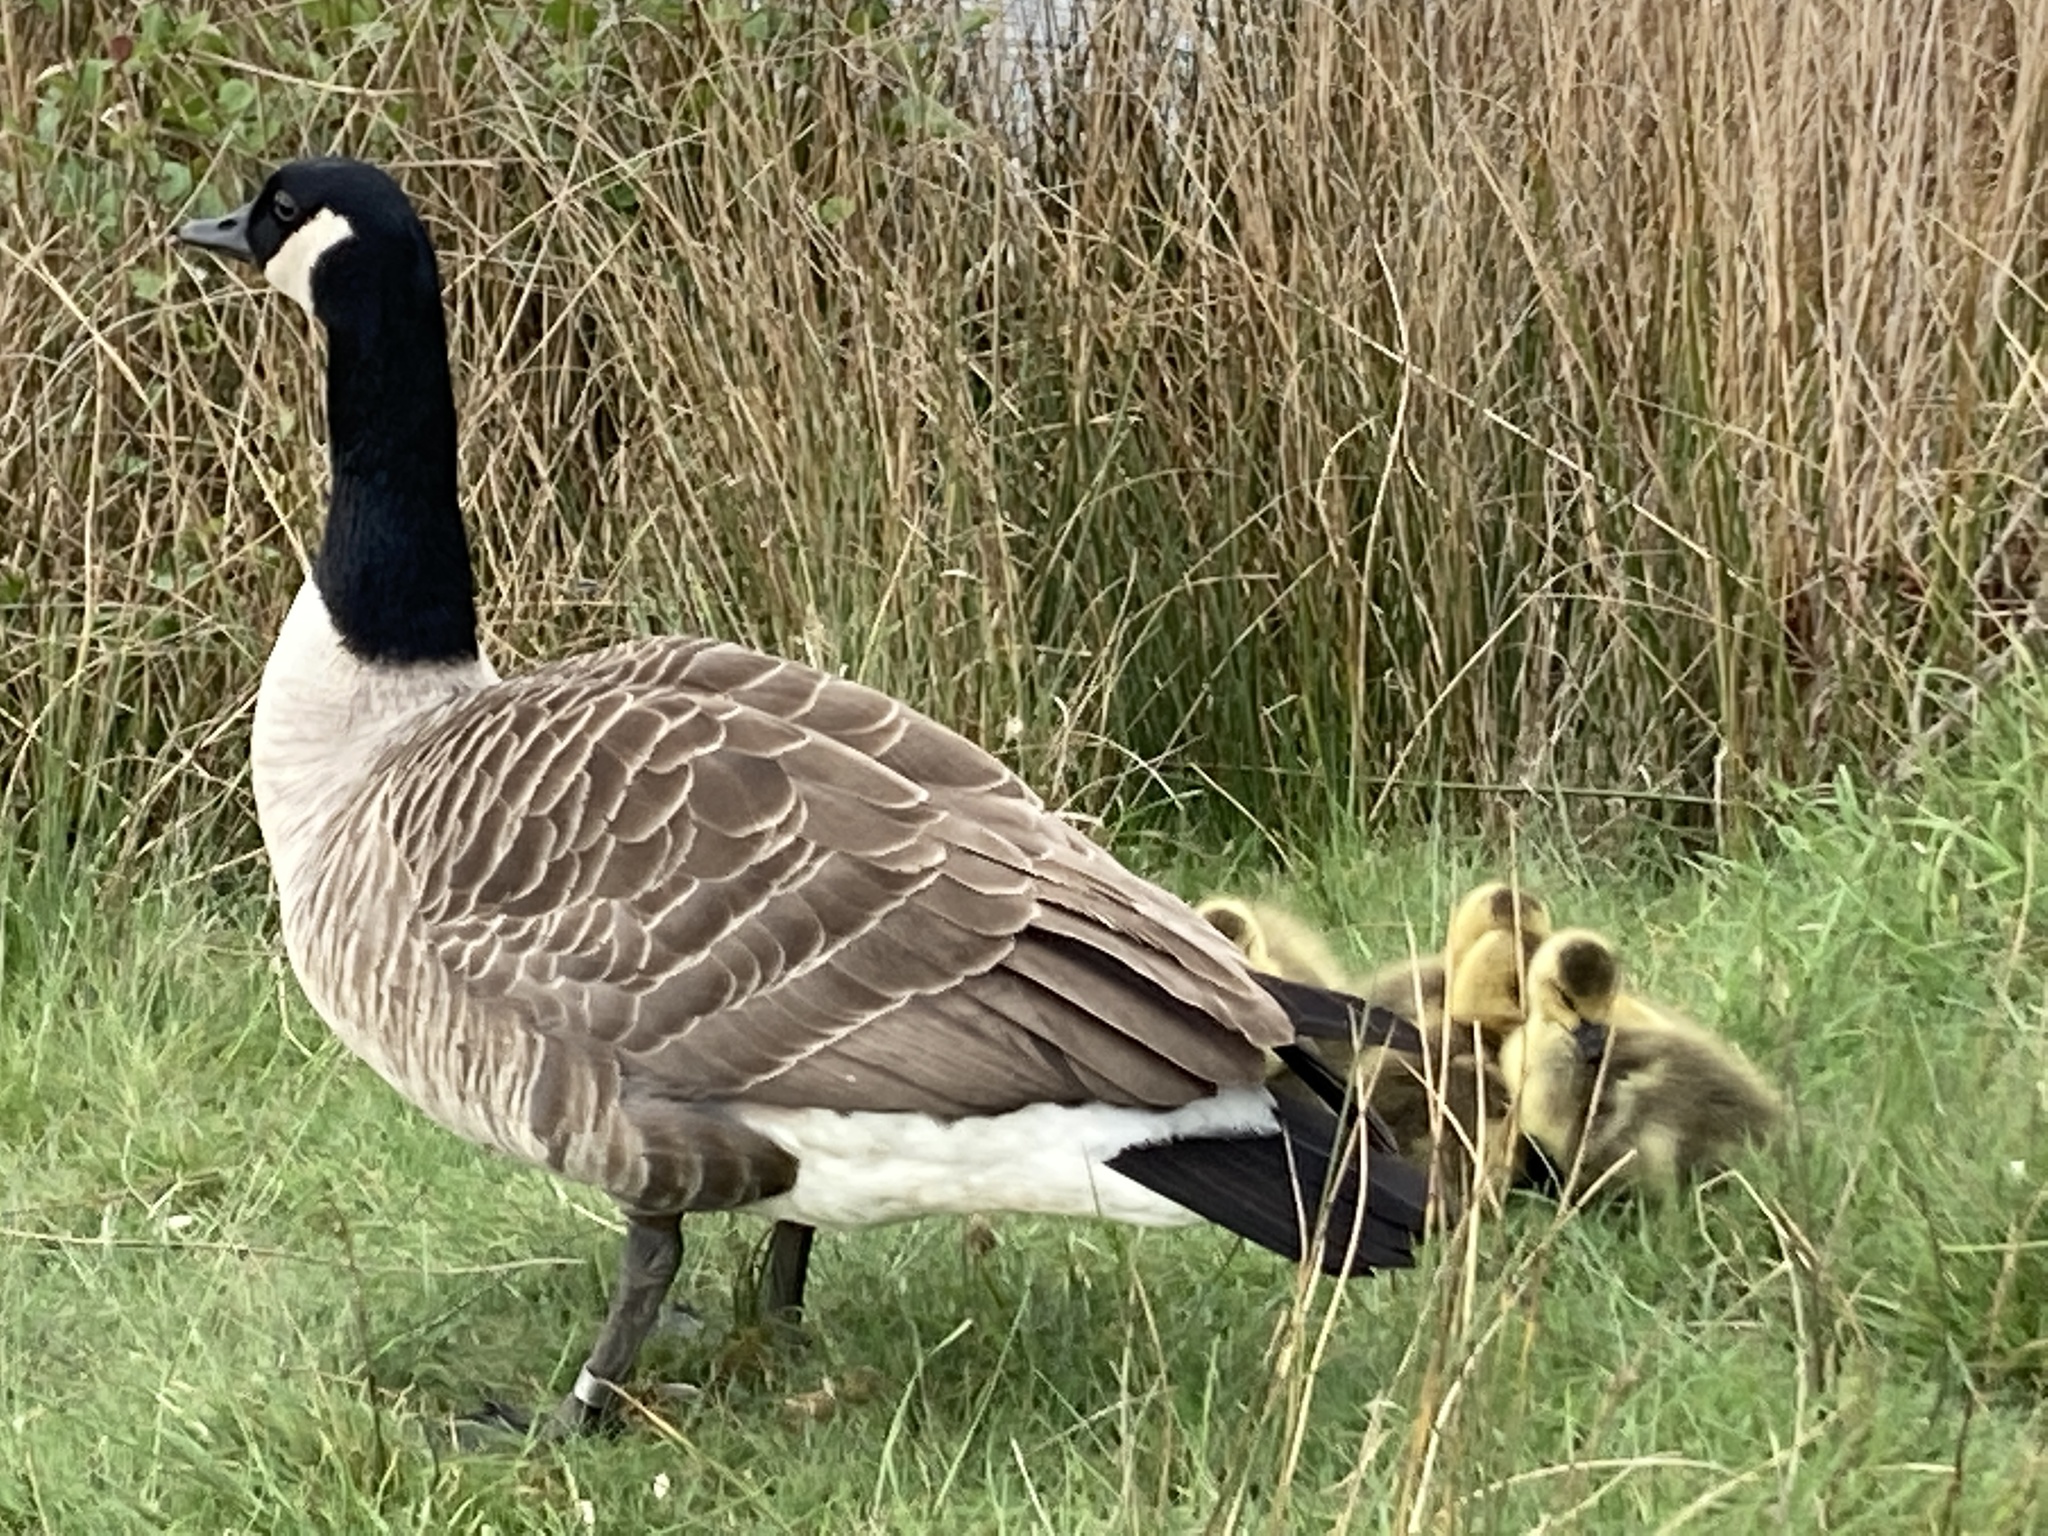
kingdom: Animalia
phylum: Chordata
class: Aves
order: Anseriformes
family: Anatidae
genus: Branta
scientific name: Branta canadensis
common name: Canada goose
